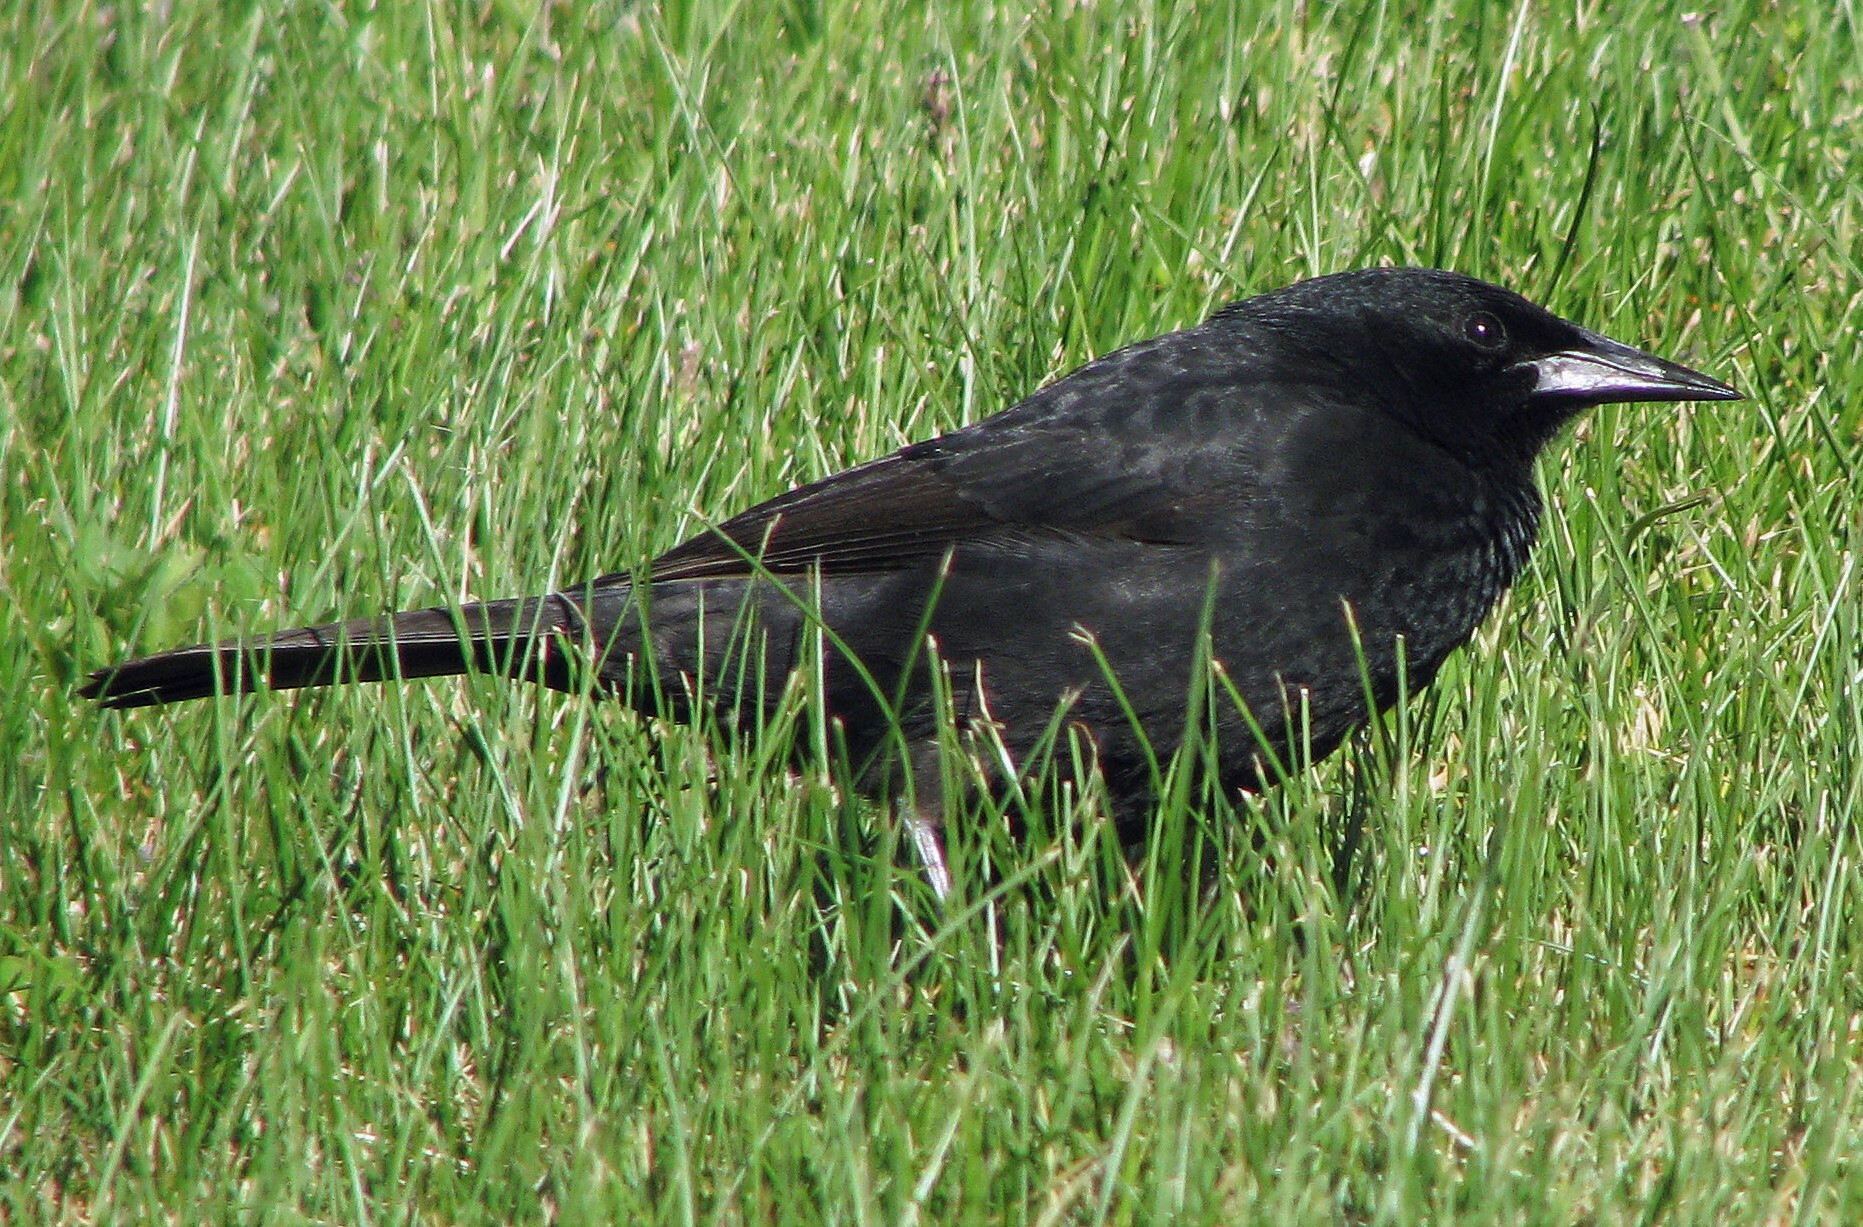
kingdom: Animalia
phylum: Chordata
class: Aves
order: Passeriformes
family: Icteridae
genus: Curaeus
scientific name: Curaeus curaeus
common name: Austral blackbird
